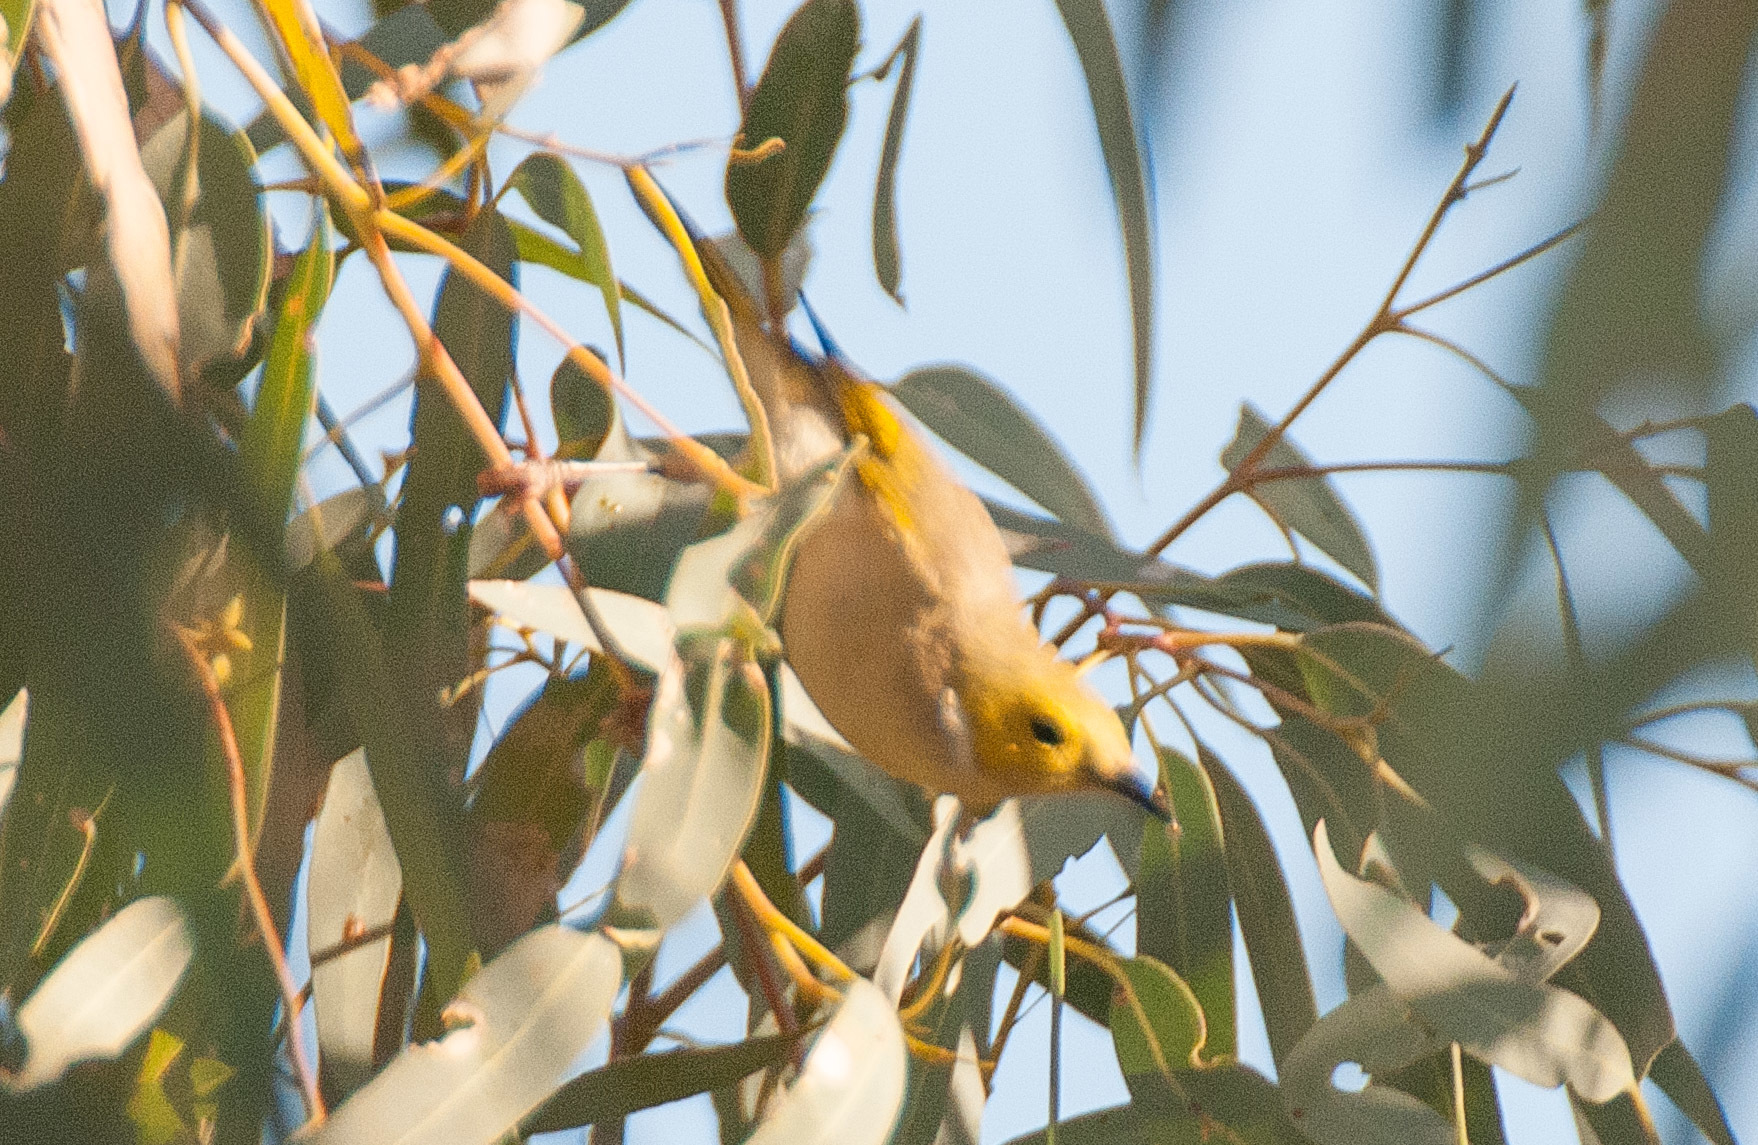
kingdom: Animalia
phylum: Chordata
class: Aves
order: Passeriformes
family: Meliphagidae
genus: Ptilotula
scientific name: Ptilotula penicillata
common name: White-plumed honeyeater
